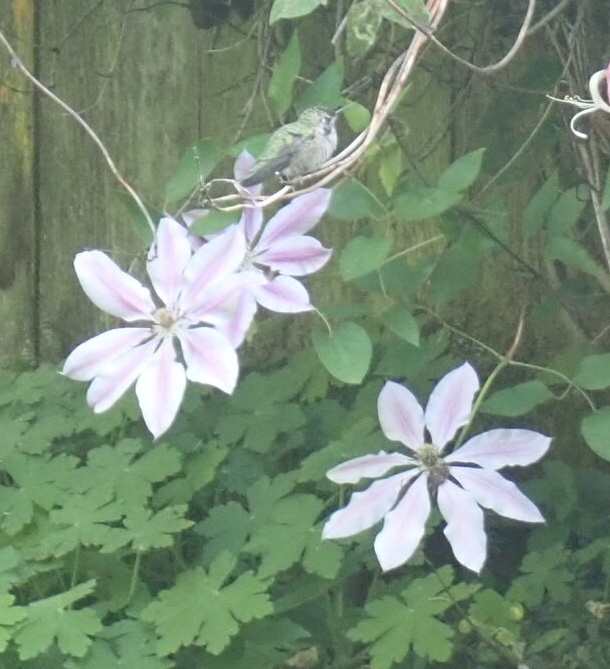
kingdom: Animalia
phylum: Chordata
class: Aves
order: Apodiformes
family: Trochilidae
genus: Calypte
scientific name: Calypte anna
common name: Anna's hummingbird
